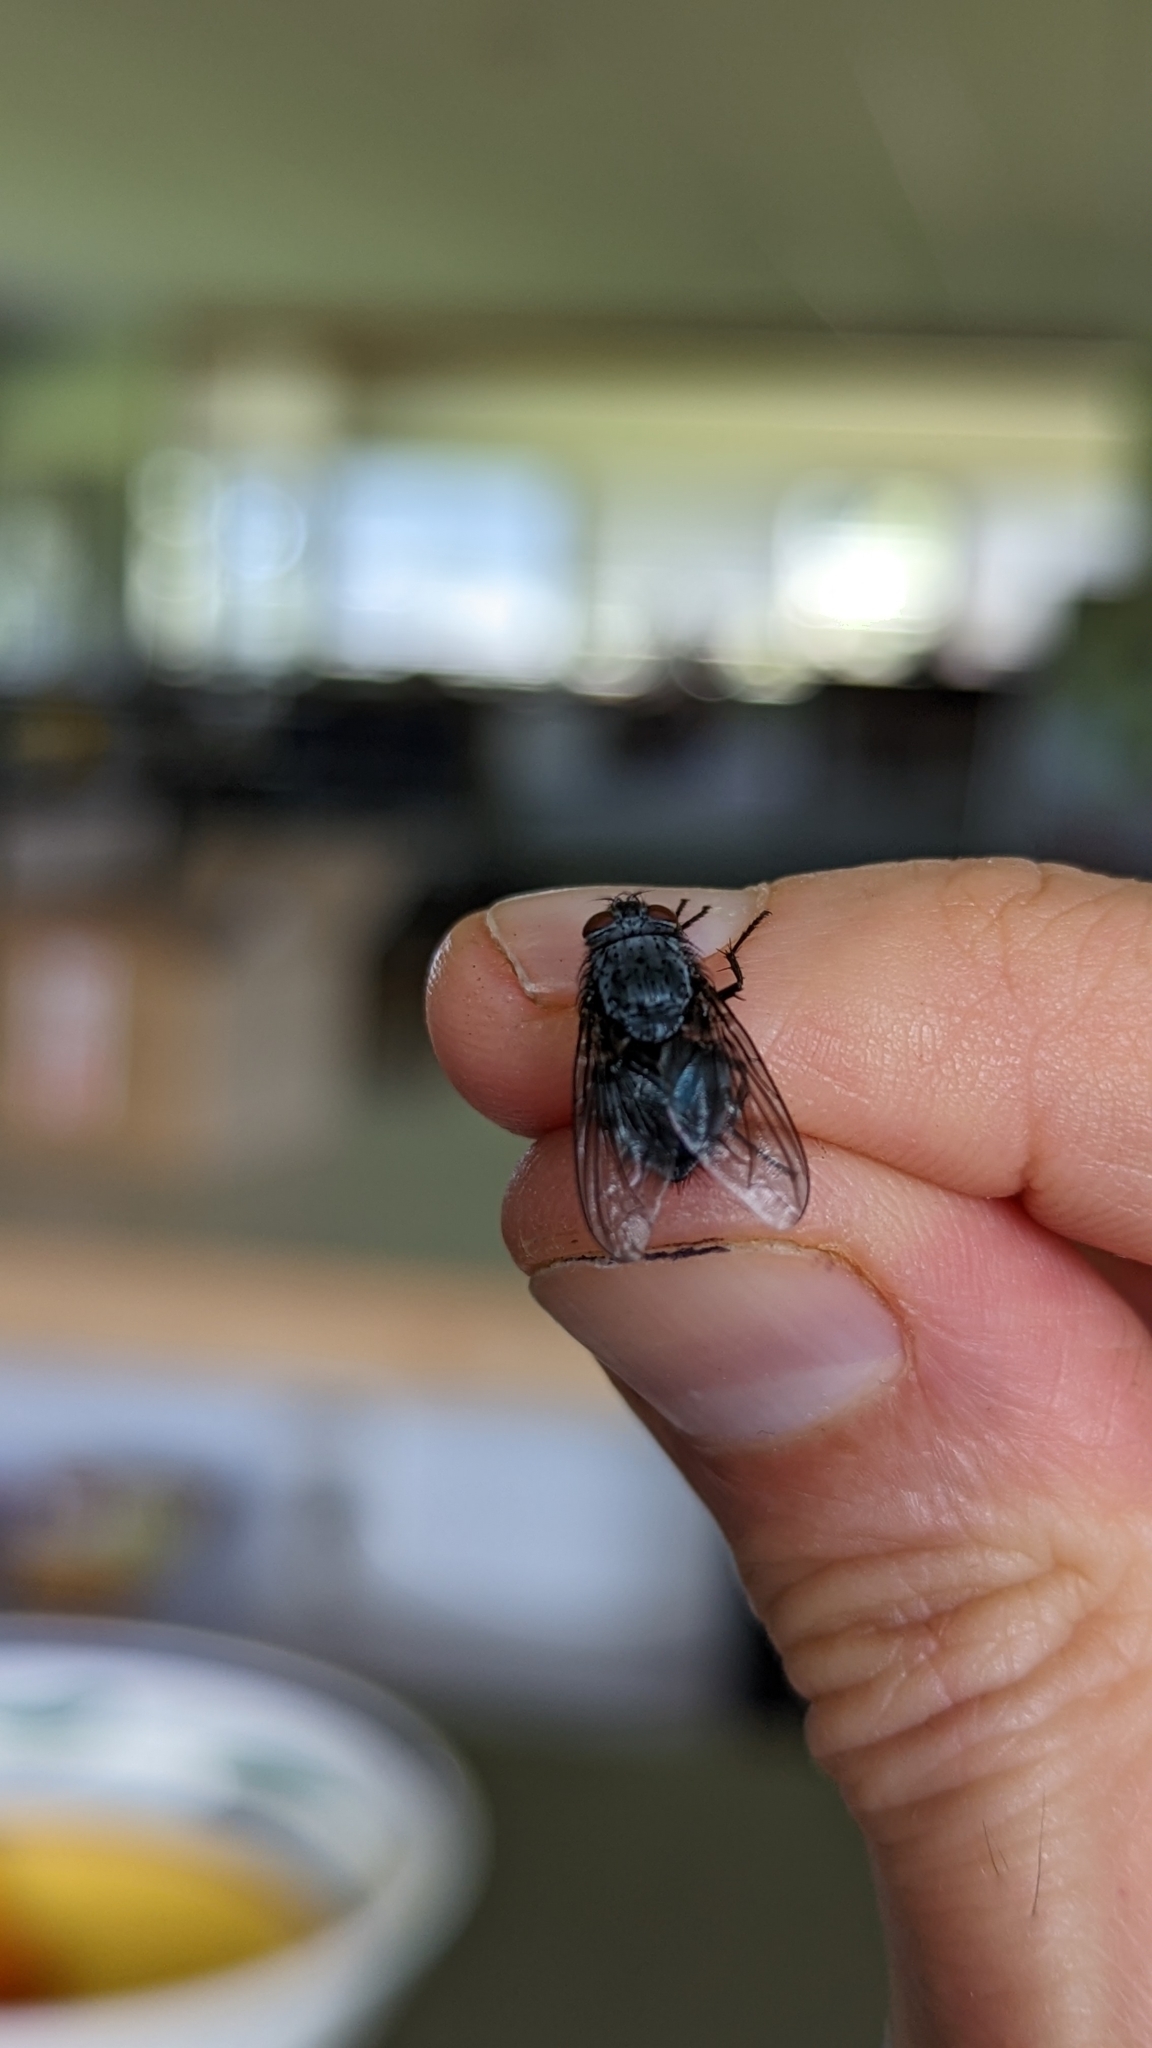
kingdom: Animalia
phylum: Arthropoda
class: Insecta
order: Diptera
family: Calliphoridae
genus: Calliphora
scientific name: Calliphora vicina
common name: Common blow flie
